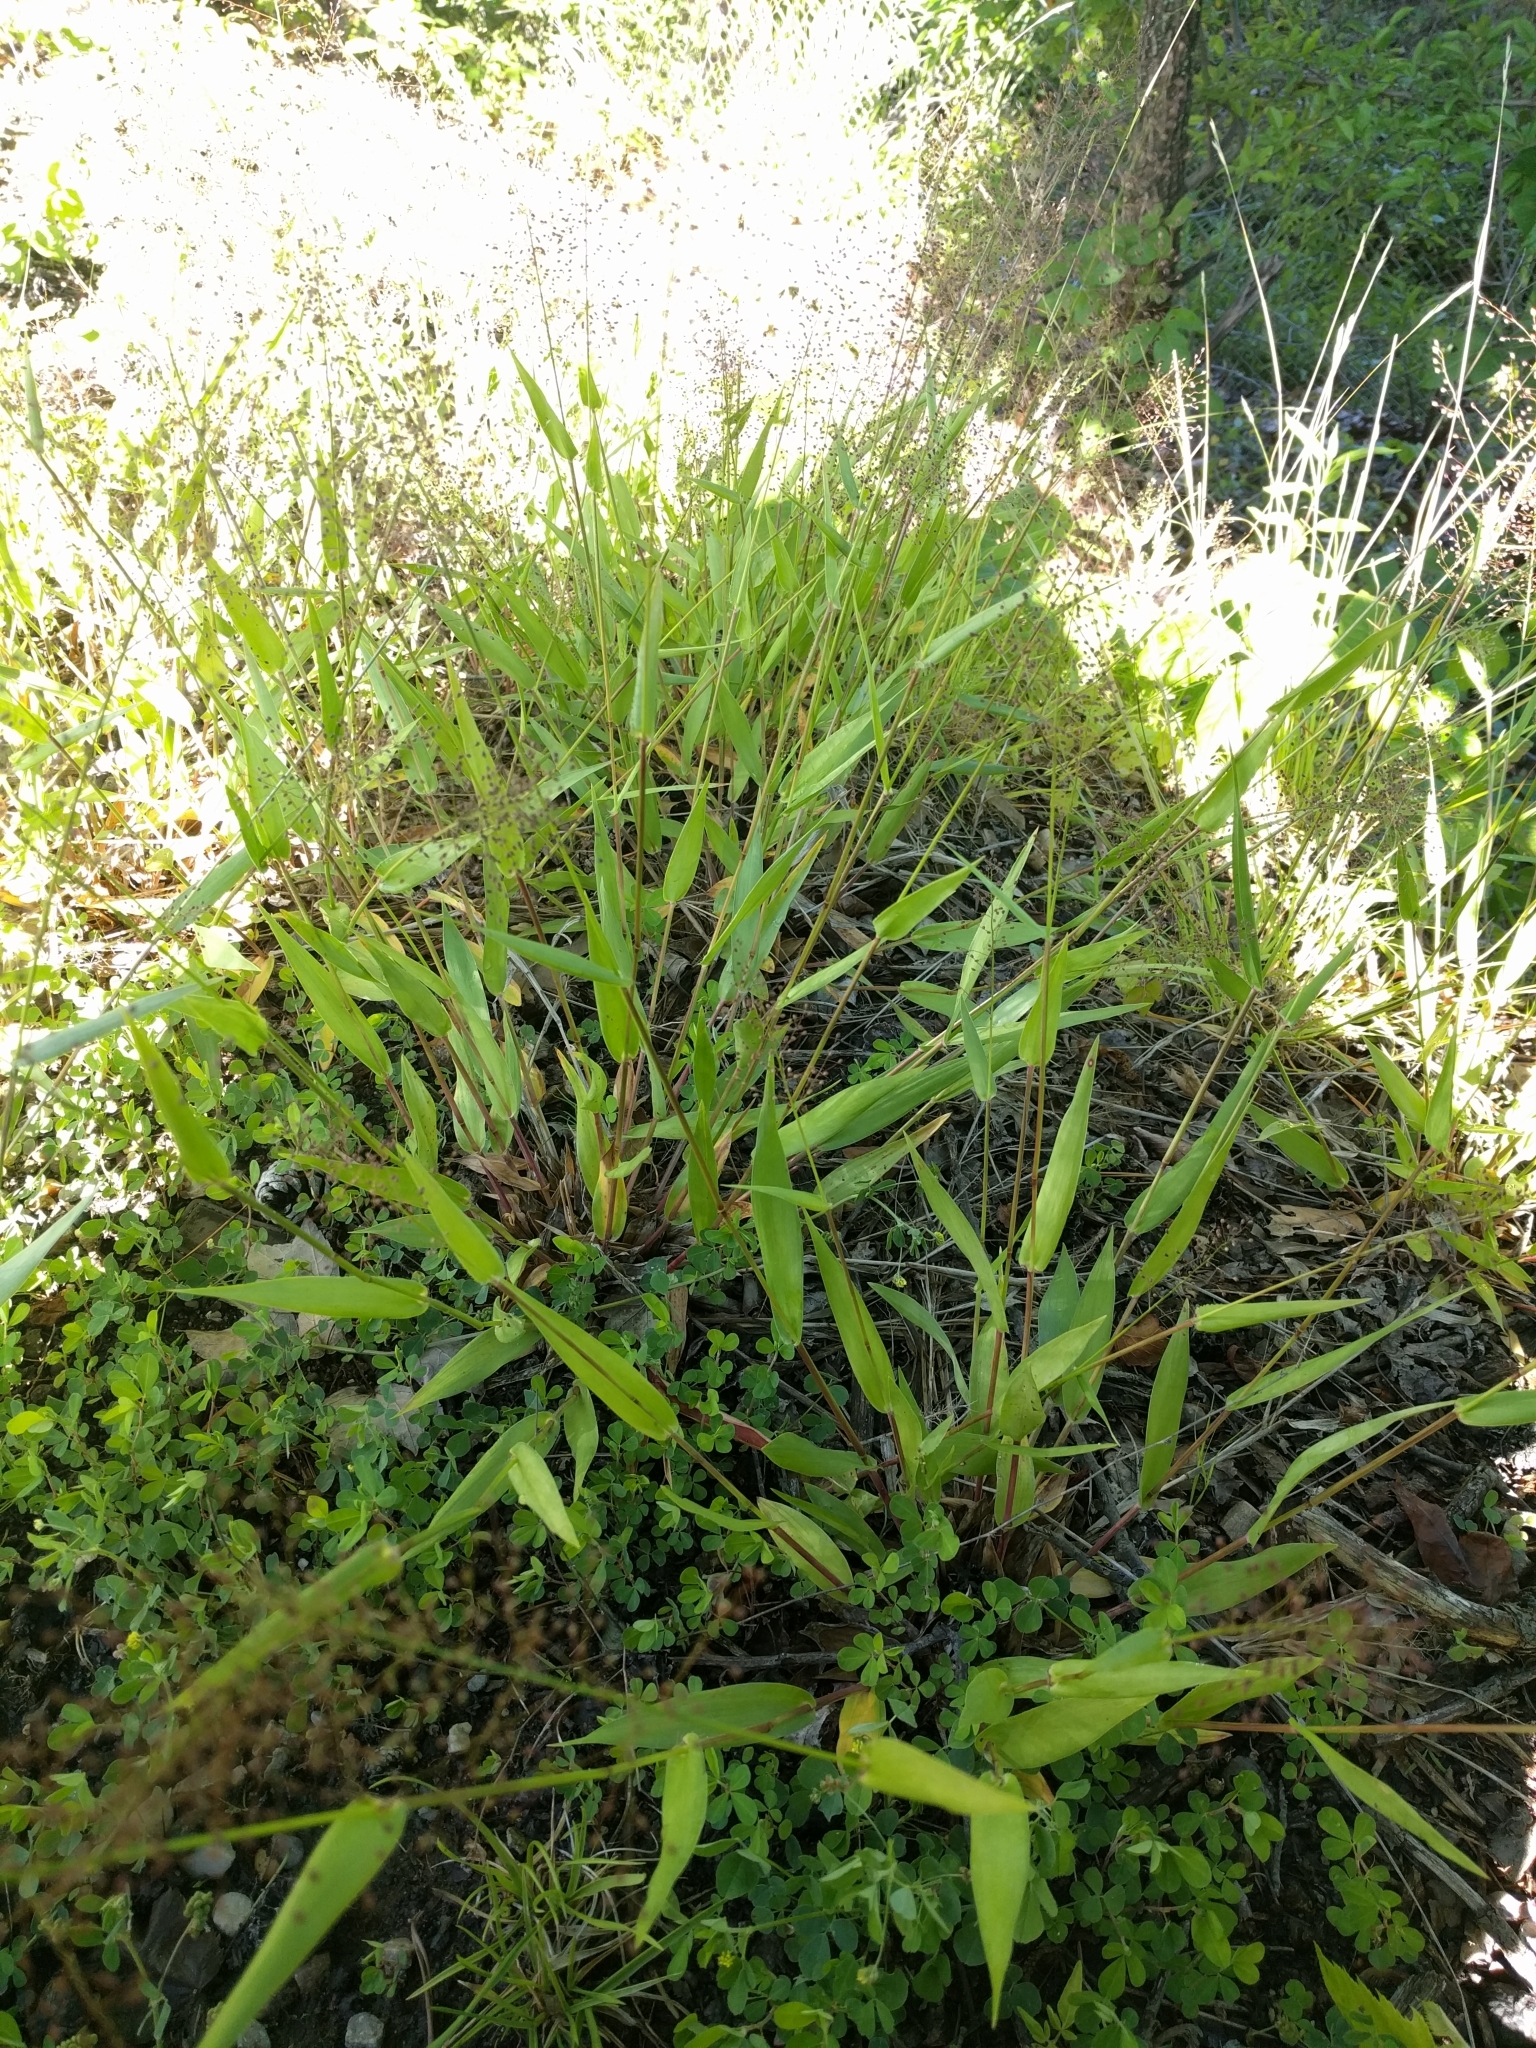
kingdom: Plantae
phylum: Tracheophyta
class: Liliopsida
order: Poales
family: Poaceae
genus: Dichanthelium
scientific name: Dichanthelium clandestinum
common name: Deer-tongue grass
